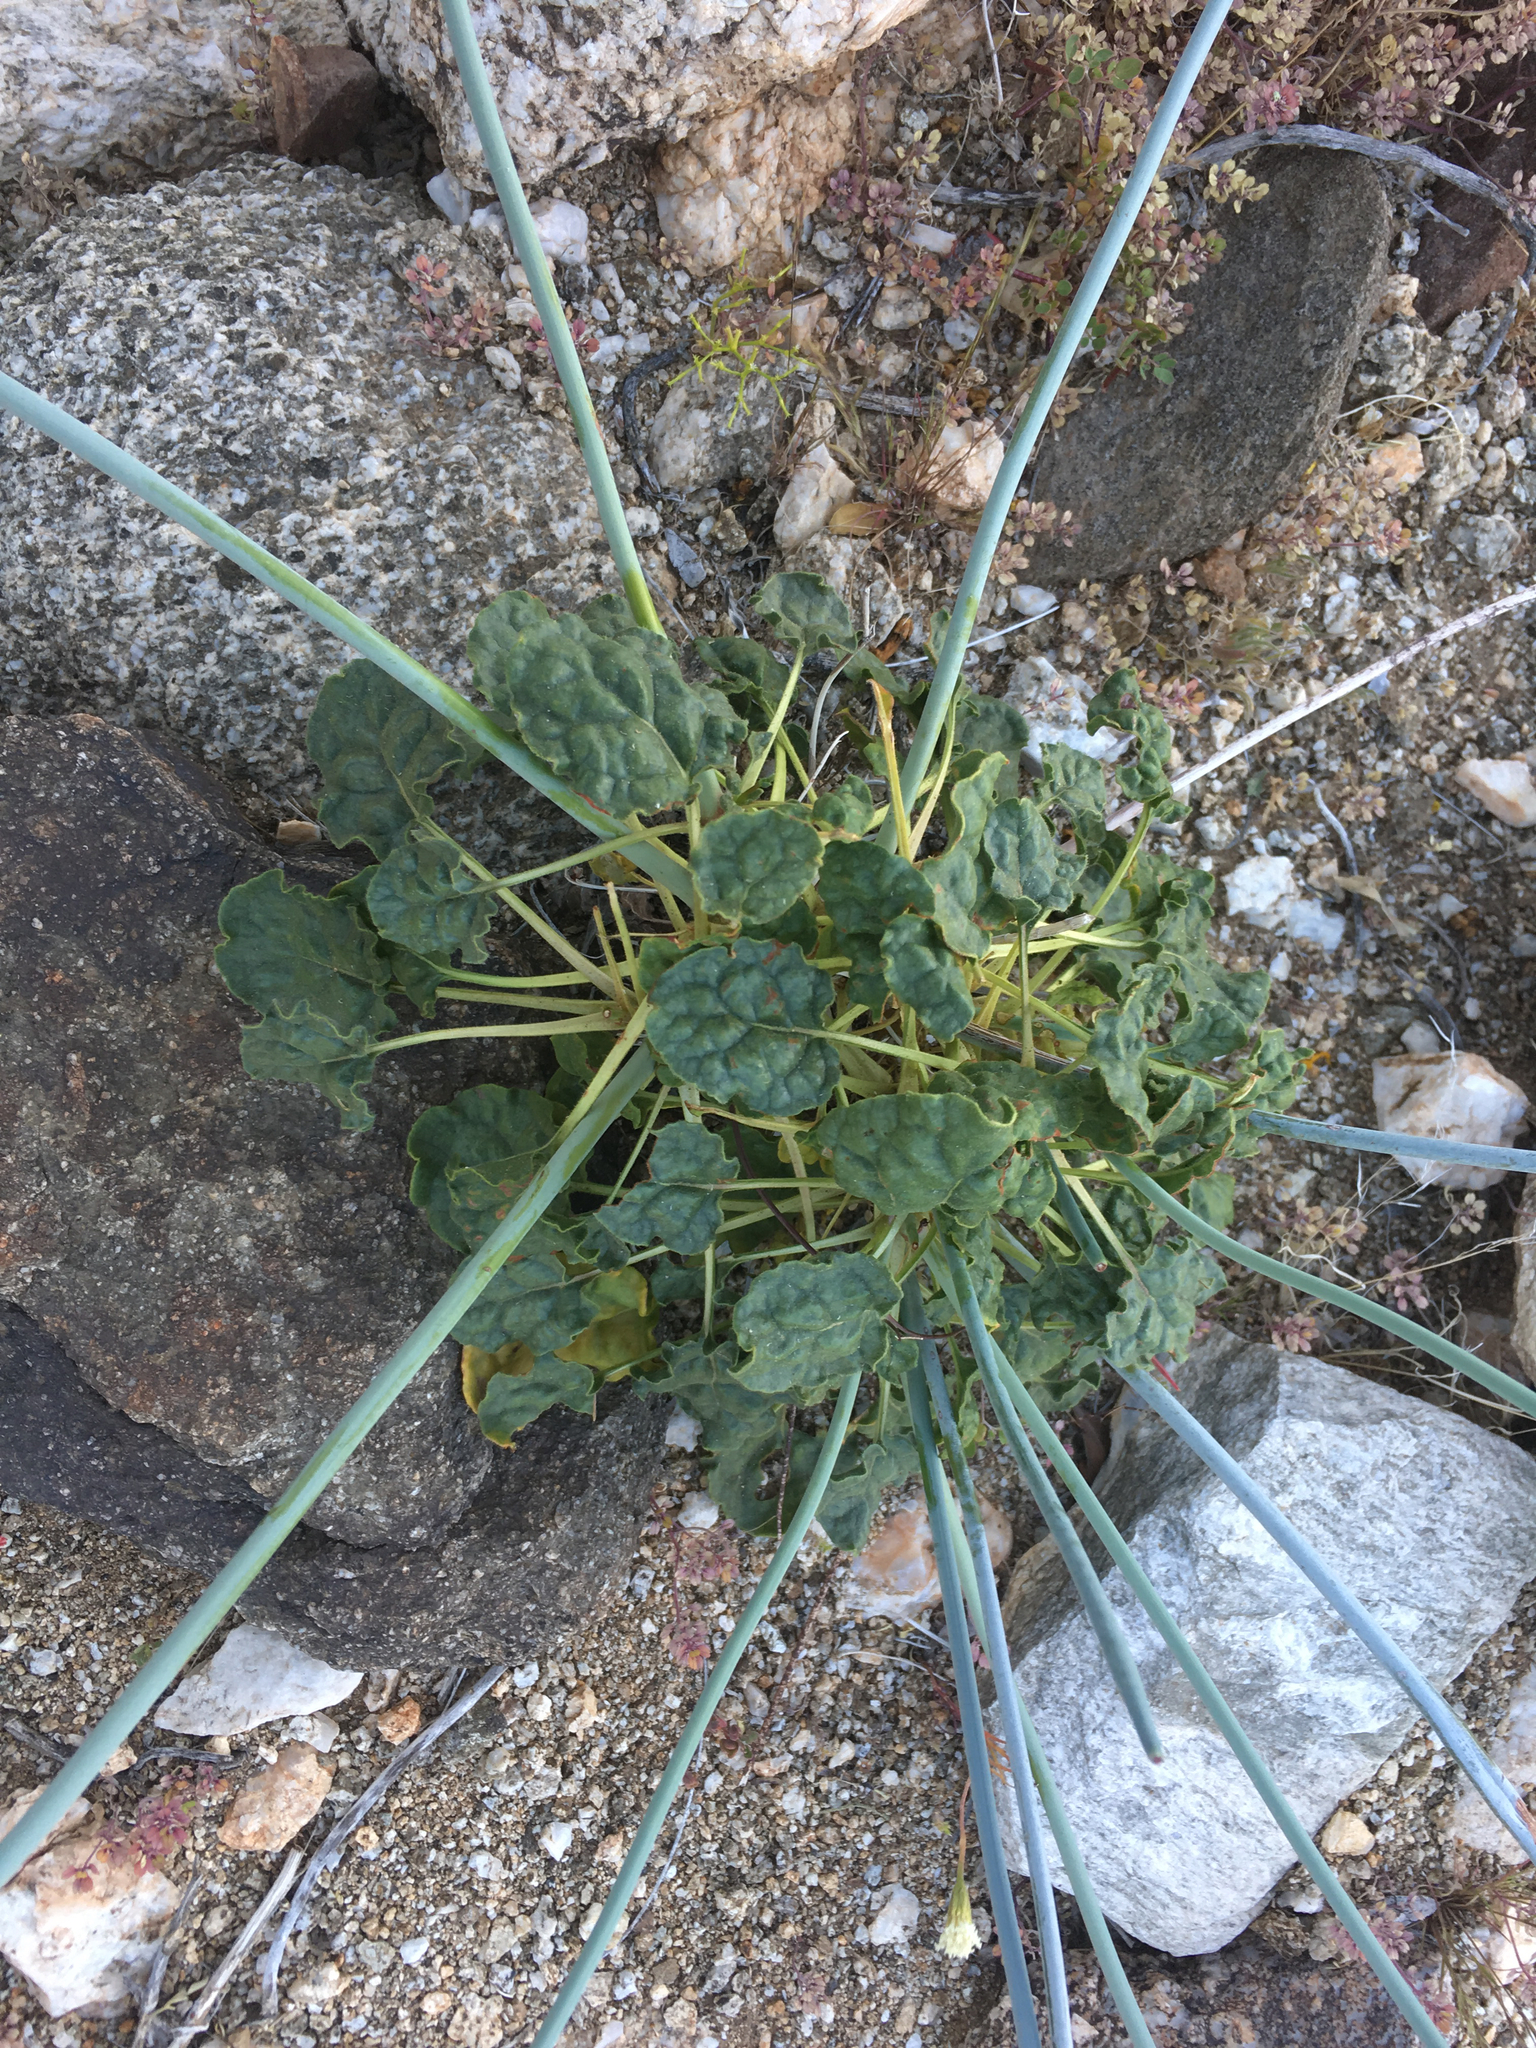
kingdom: Plantae
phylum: Tracheophyta
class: Magnoliopsida
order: Caryophyllales
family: Polygonaceae
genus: Eriogonum
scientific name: Eriogonum inflatum
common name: Desert trumpet
